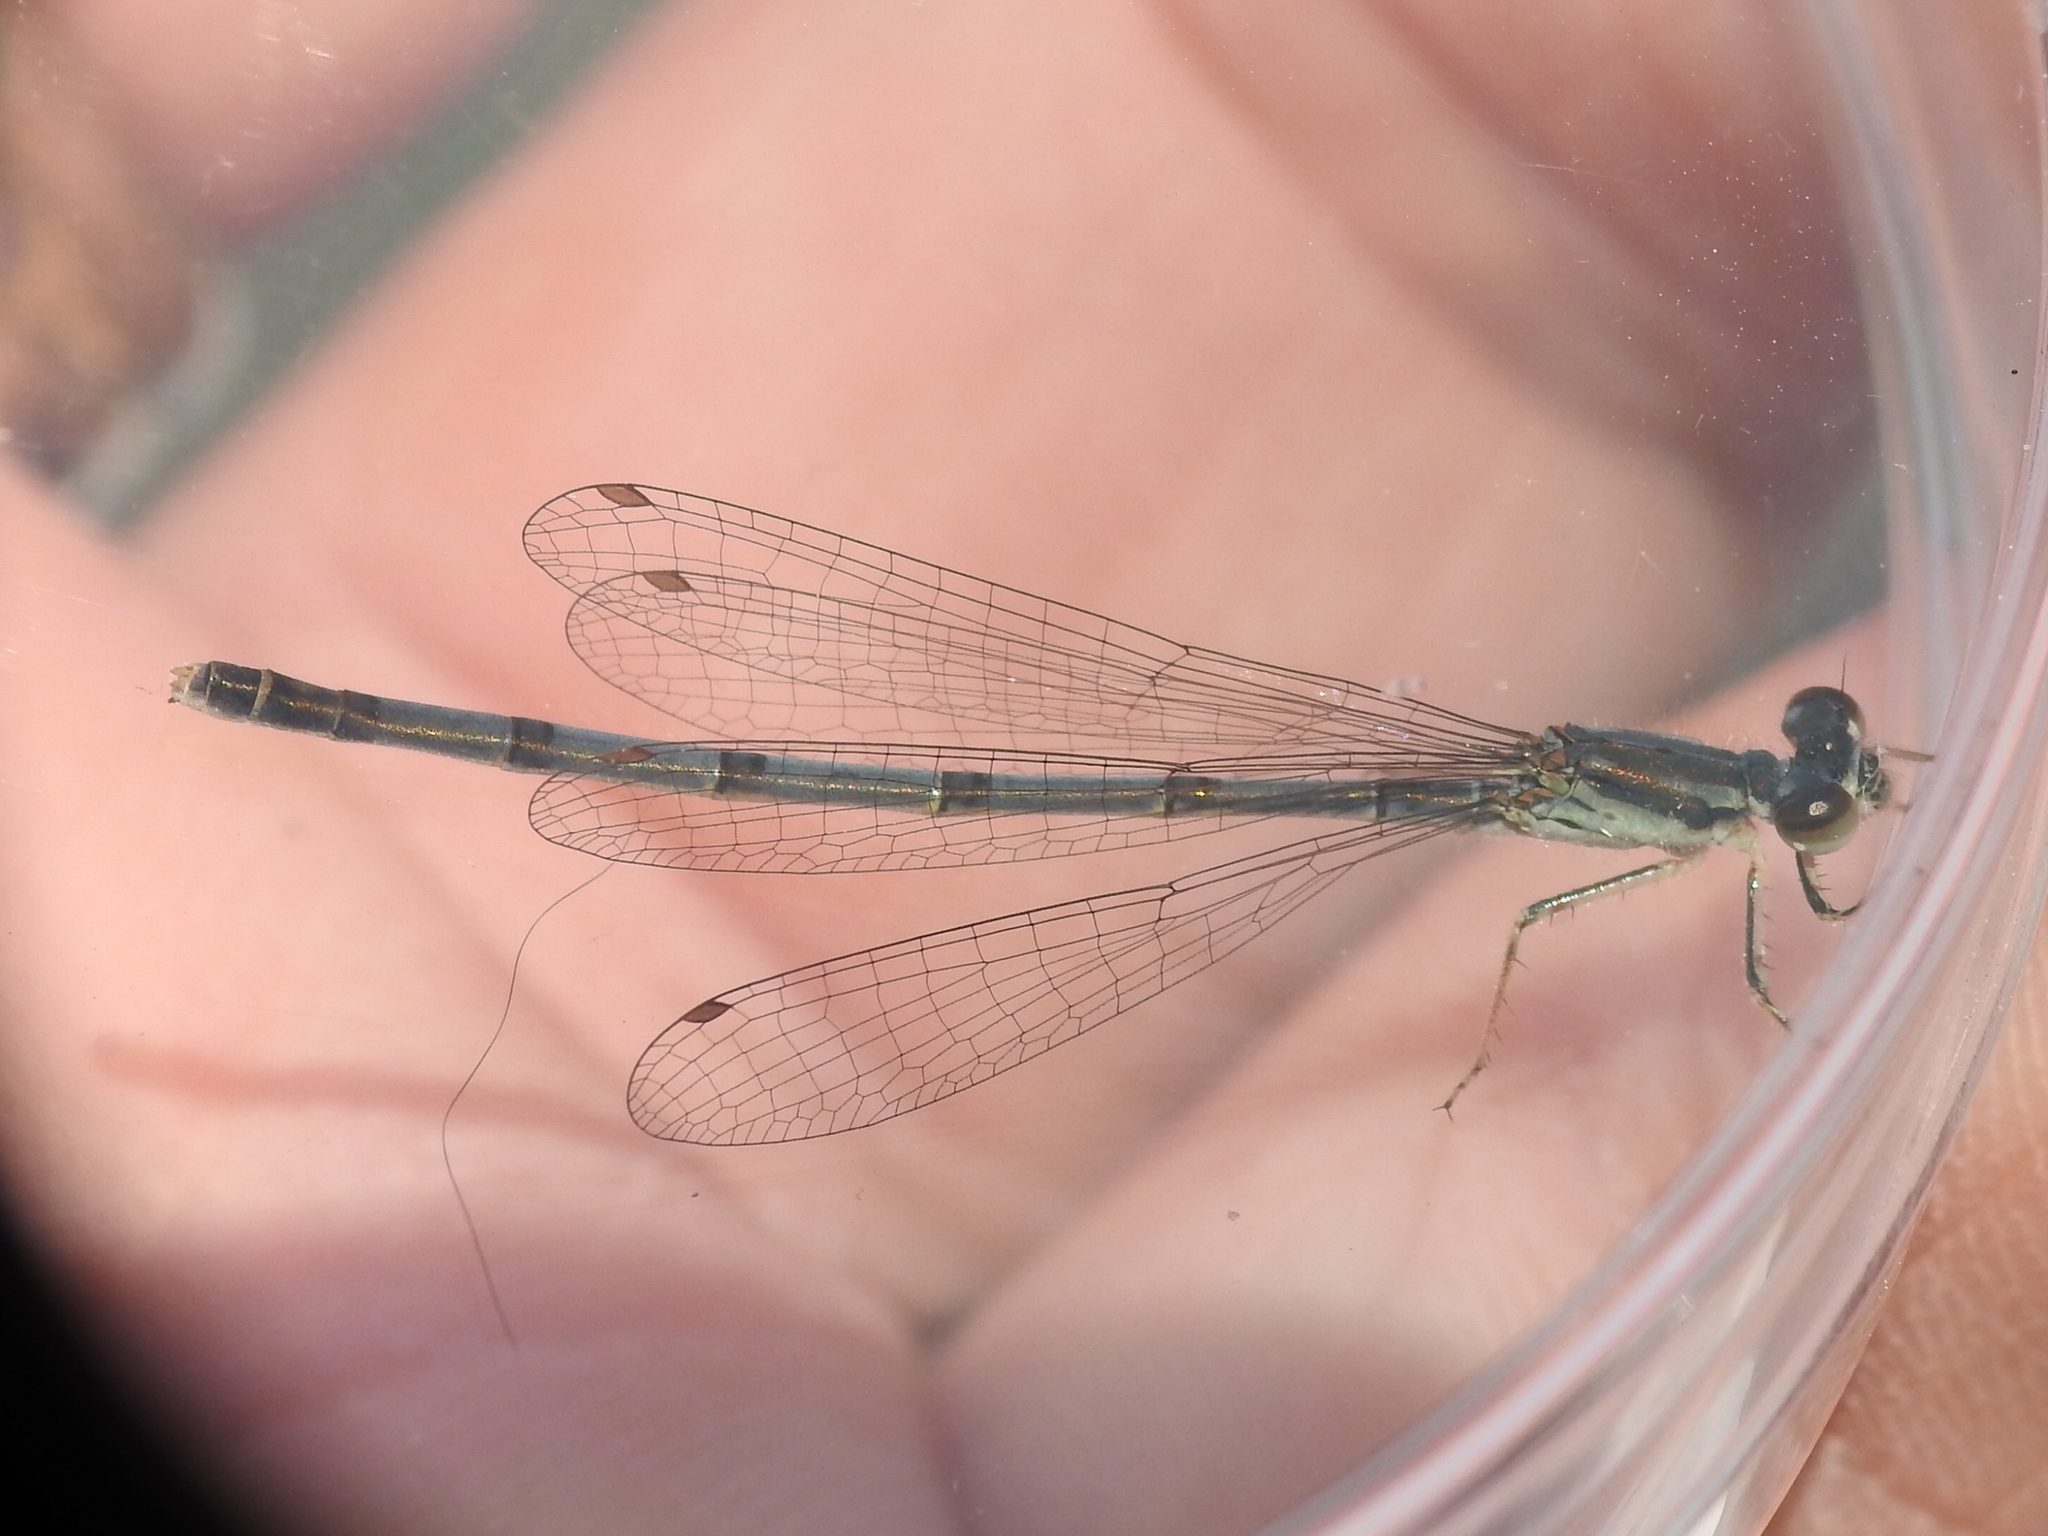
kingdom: Animalia
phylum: Arthropoda
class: Insecta
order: Odonata
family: Coenagrionidae
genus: Ischnura
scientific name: Ischnura posita
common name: Fragile forktail
